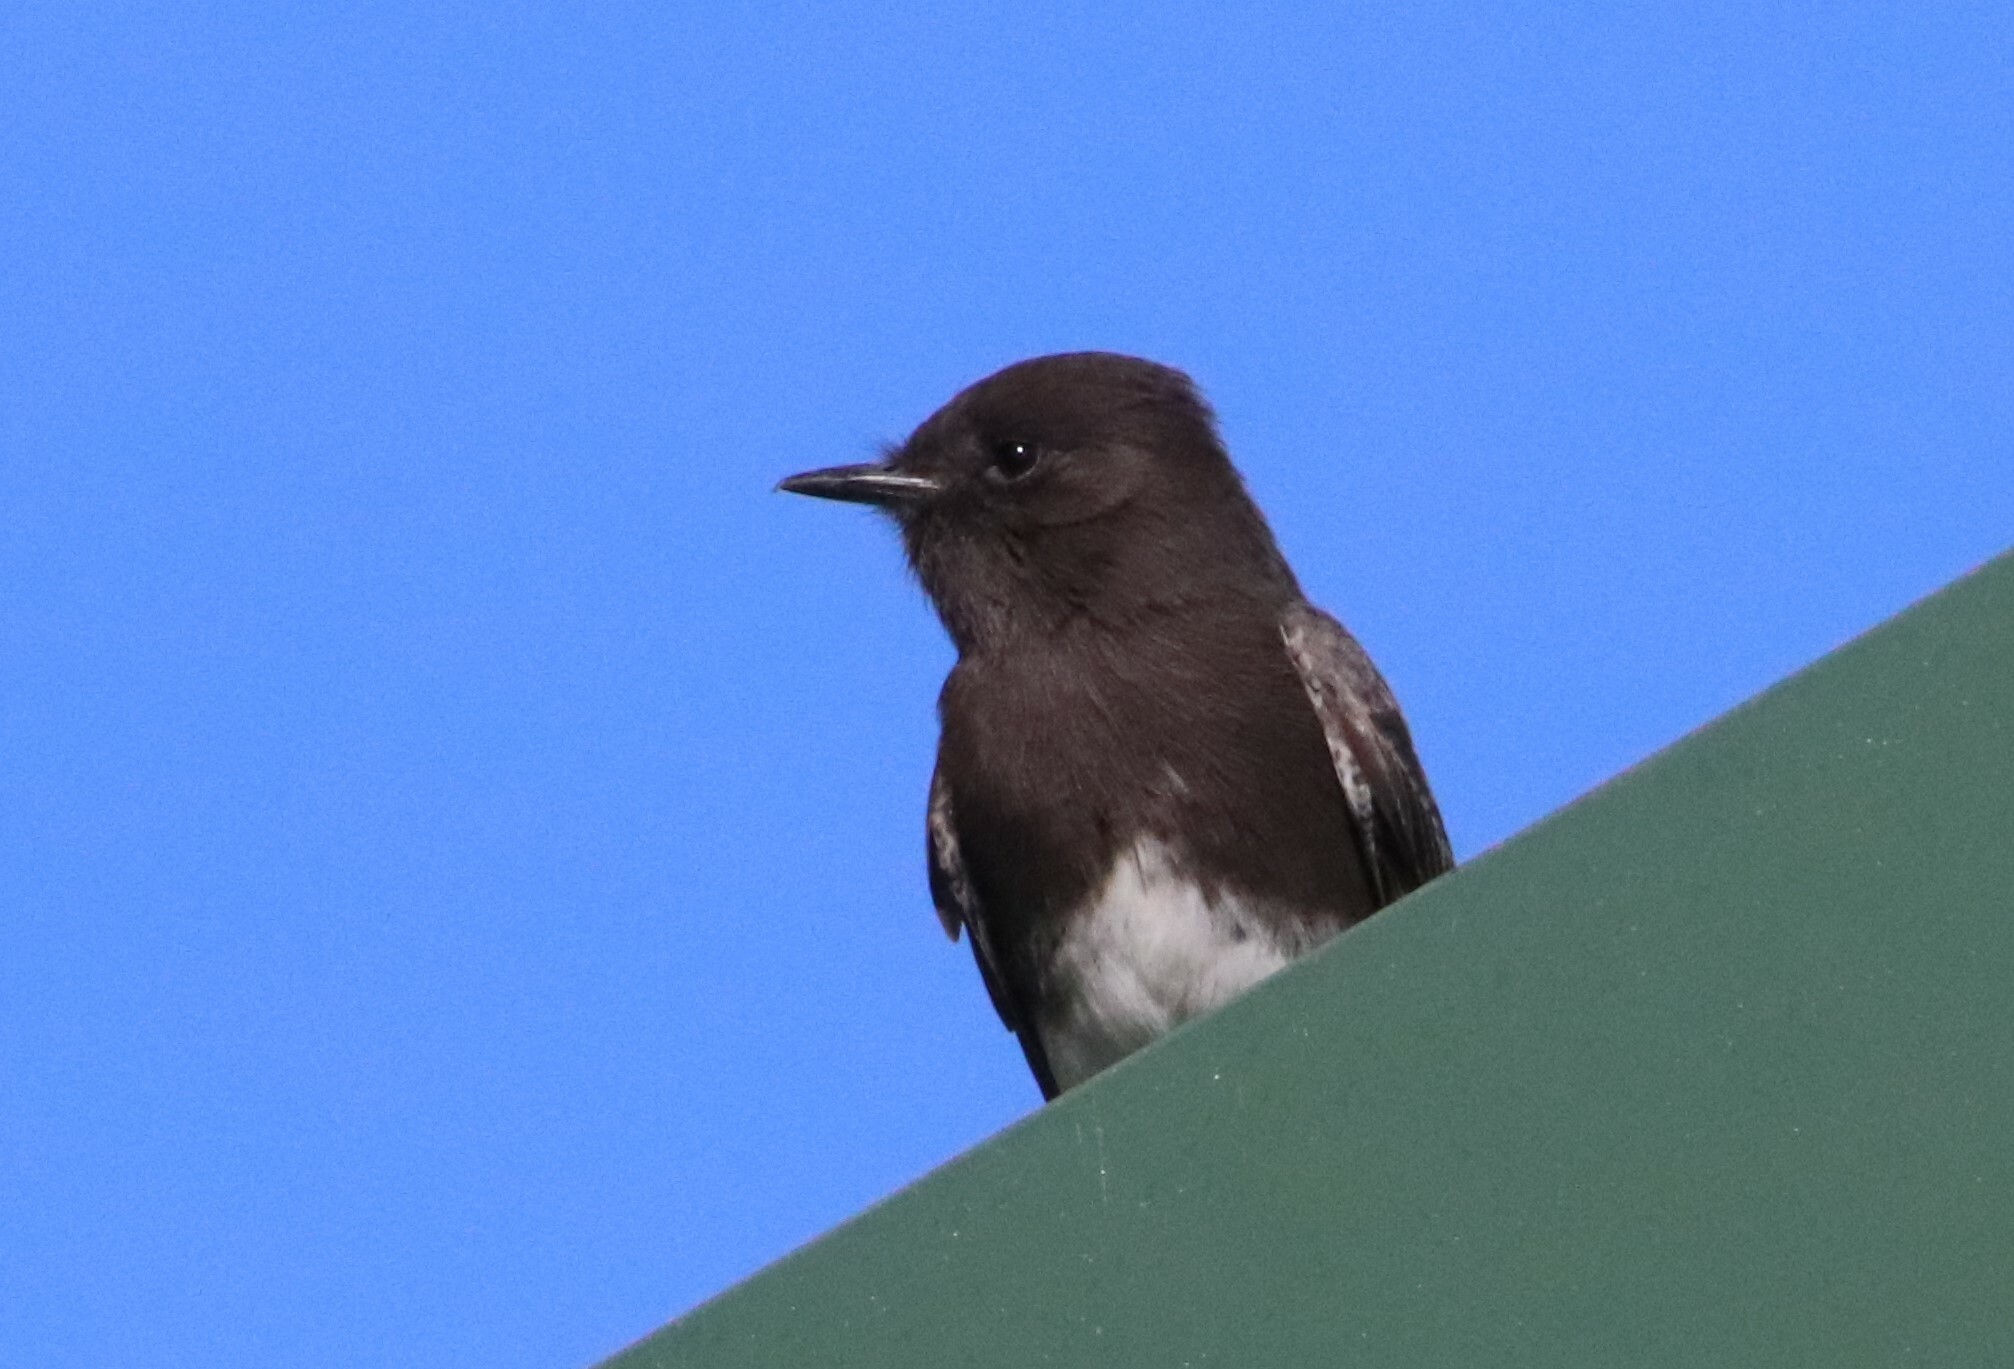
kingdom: Animalia
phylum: Chordata
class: Aves
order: Passeriformes
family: Tyrannidae
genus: Sayornis
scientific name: Sayornis nigricans
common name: Black phoebe
